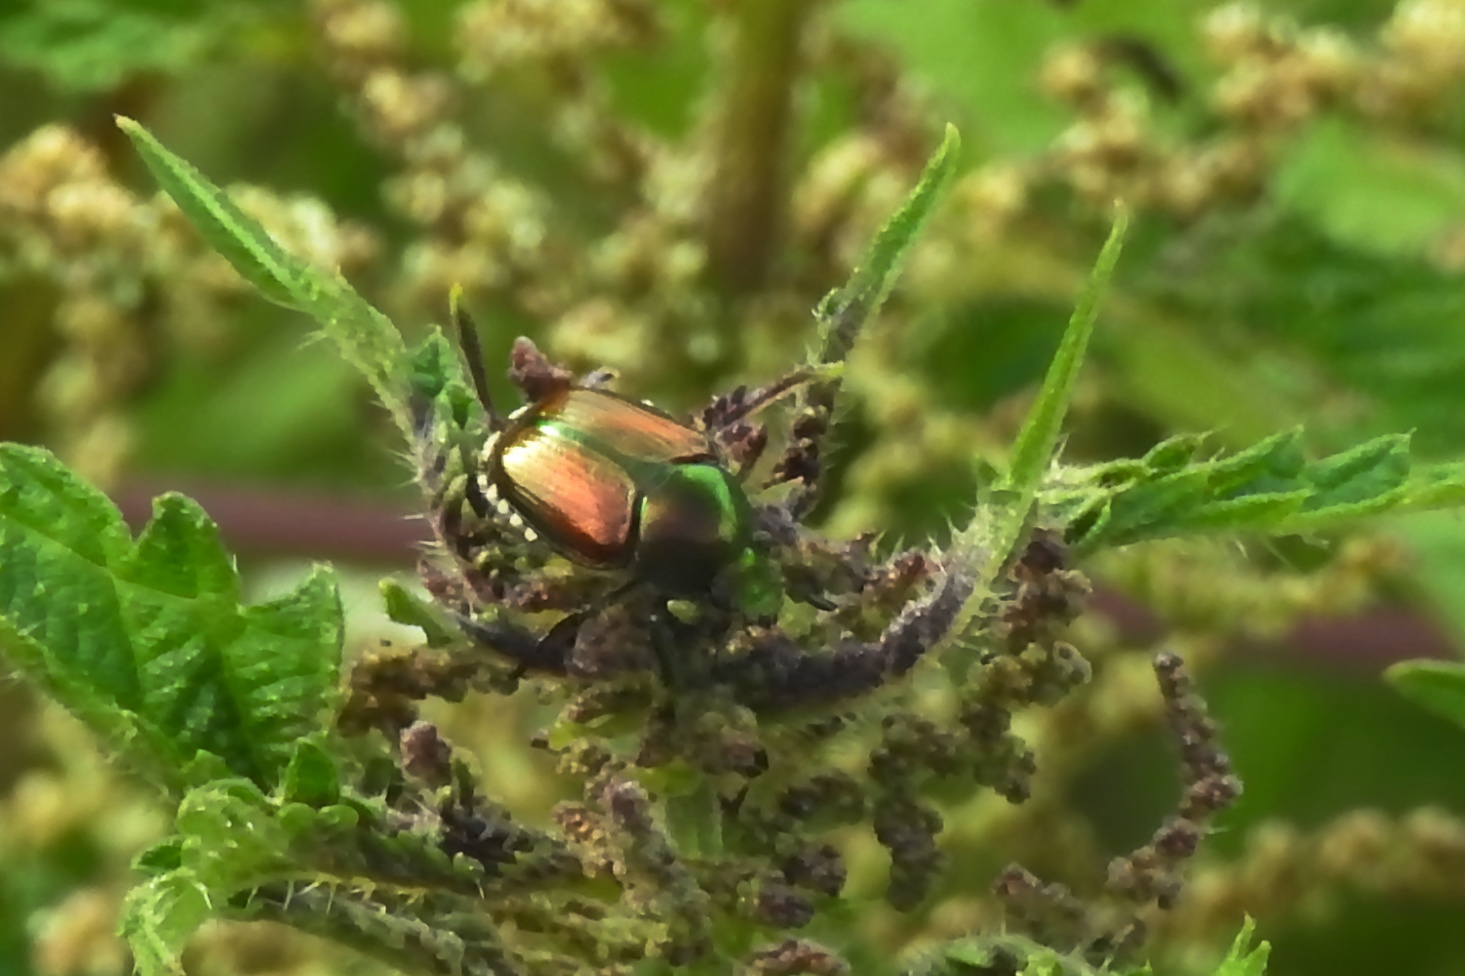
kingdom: Animalia
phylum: Arthropoda
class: Insecta
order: Coleoptera
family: Scarabaeidae
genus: Popillia
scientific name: Popillia japonica
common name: Japanese beetle
